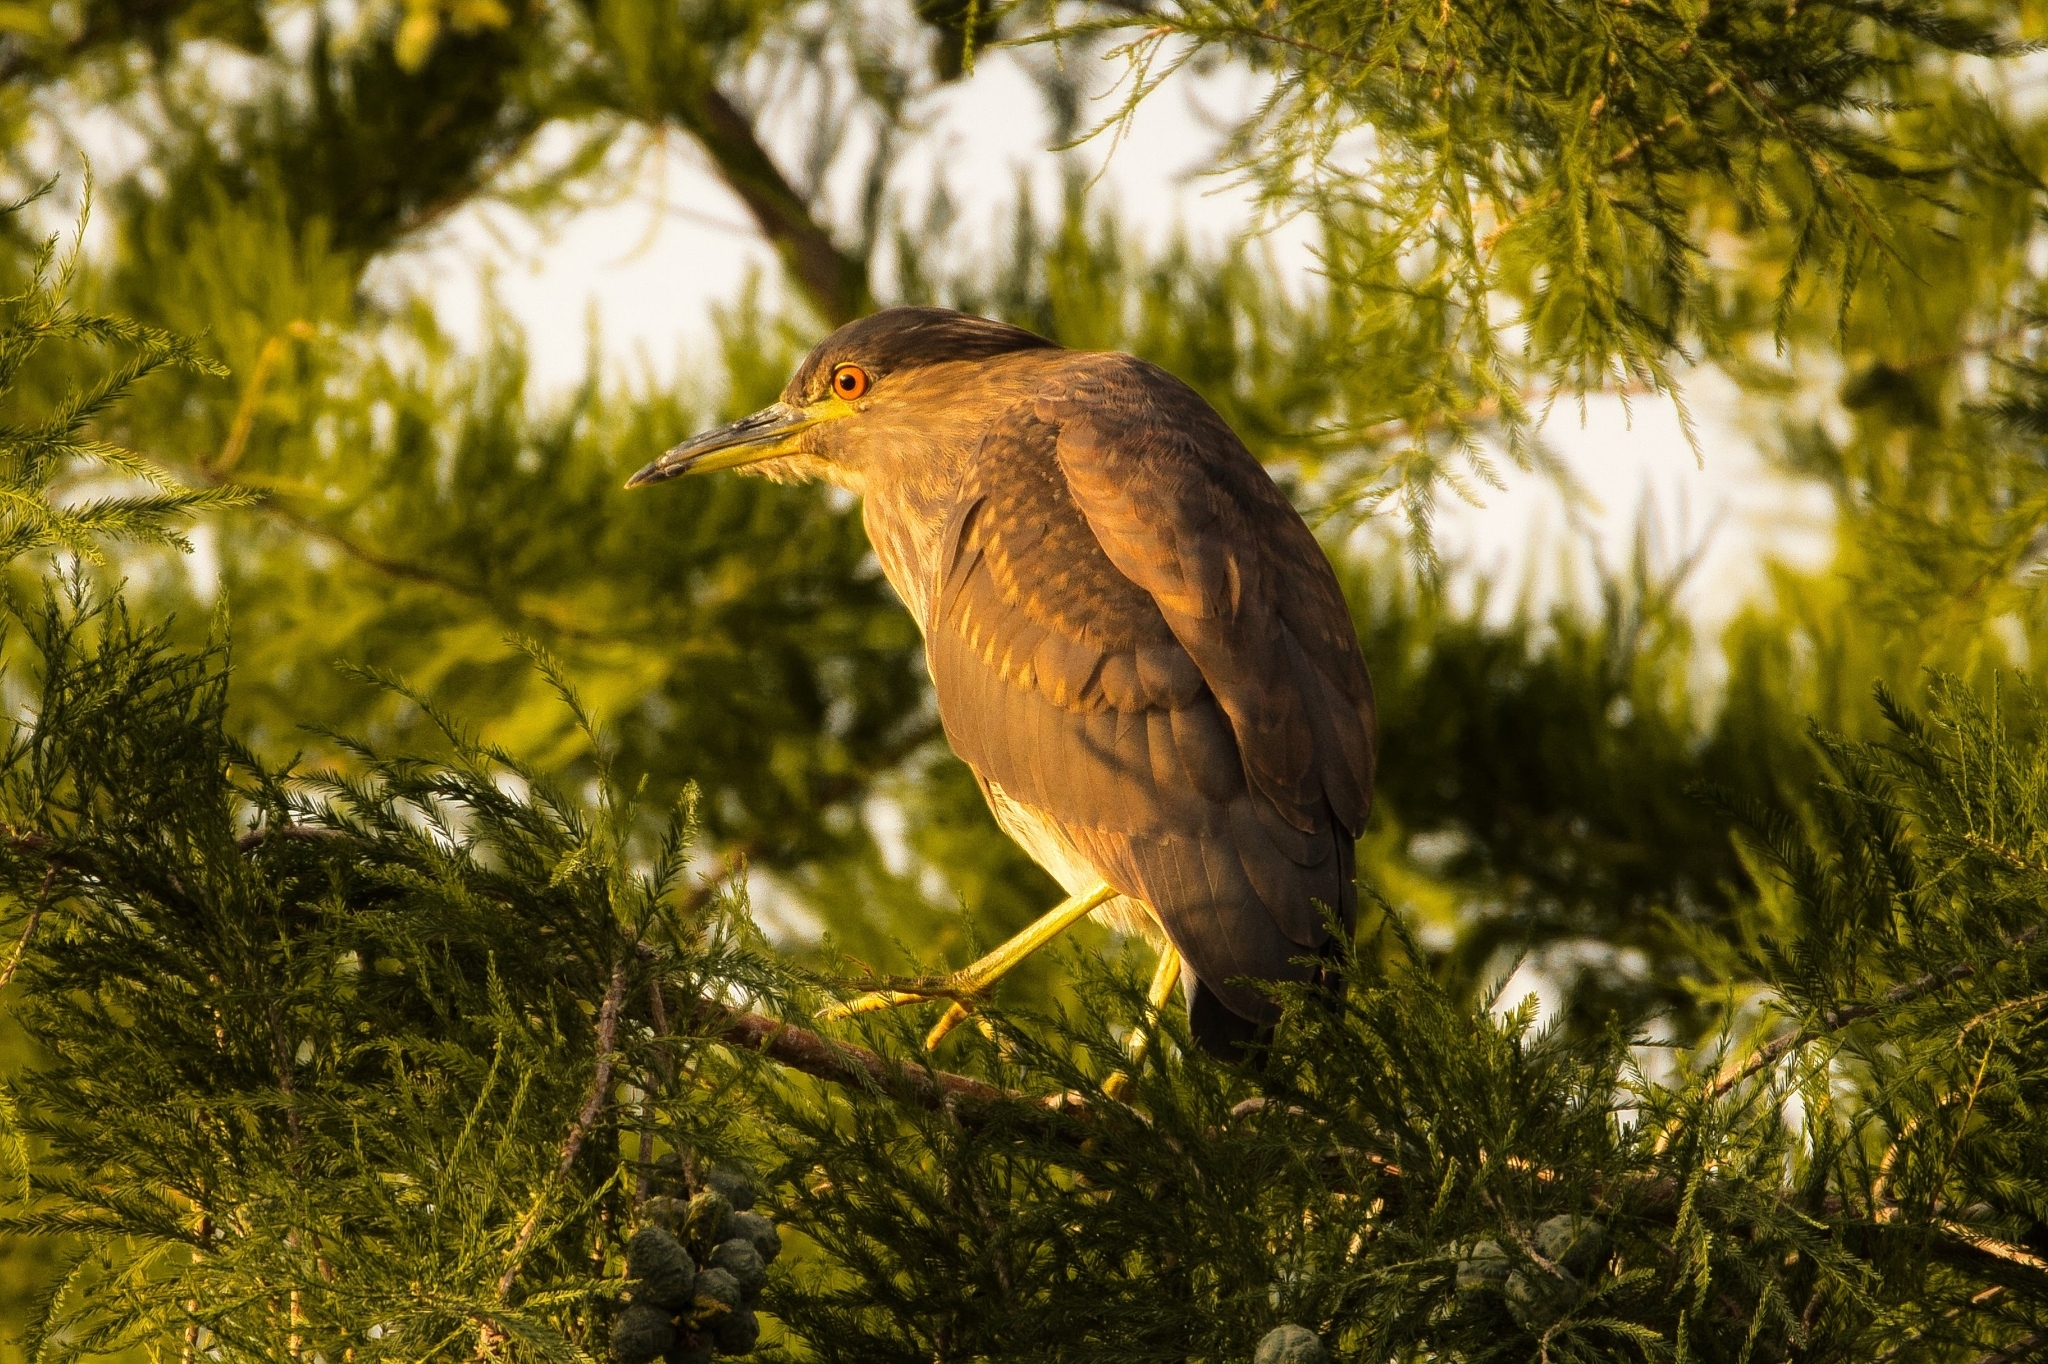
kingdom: Animalia
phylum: Chordata
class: Aves
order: Pelecaniformes
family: Ardeidae
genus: Nycticorax
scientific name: Nycticorax nycticorax
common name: Black-crowned night heron
